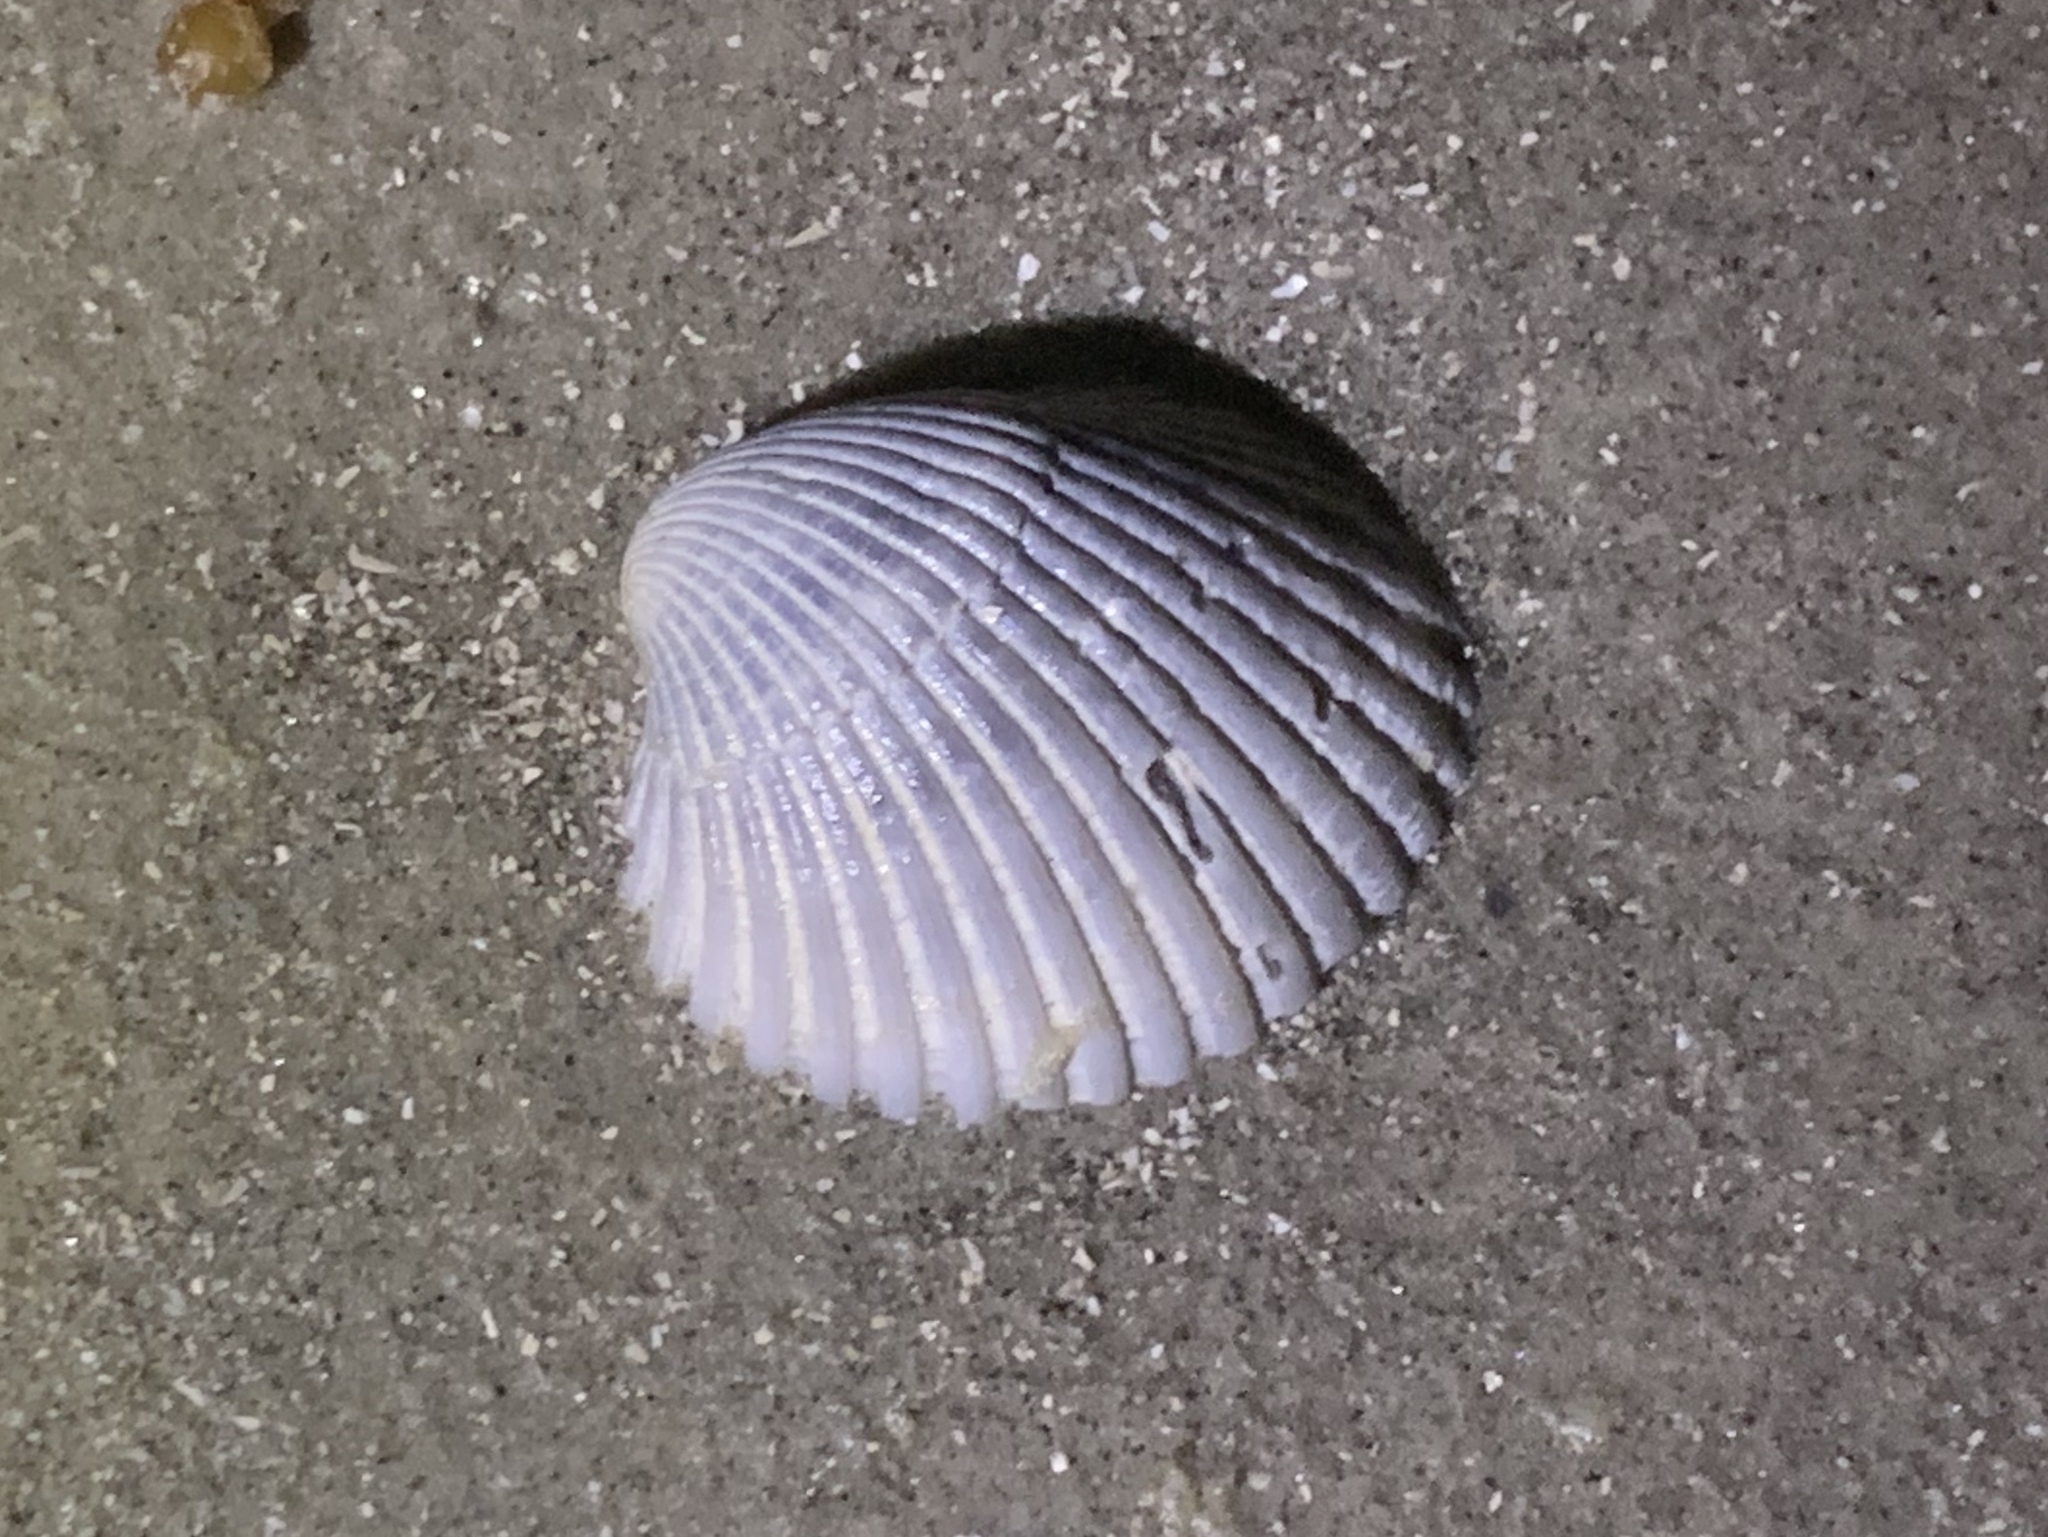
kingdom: Animalia
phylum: Mollusca
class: Bivalvia
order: Cardiida
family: Cardiidae
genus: Dinocardium
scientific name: Dinocardium robustum
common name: Atlantic giant cockle
